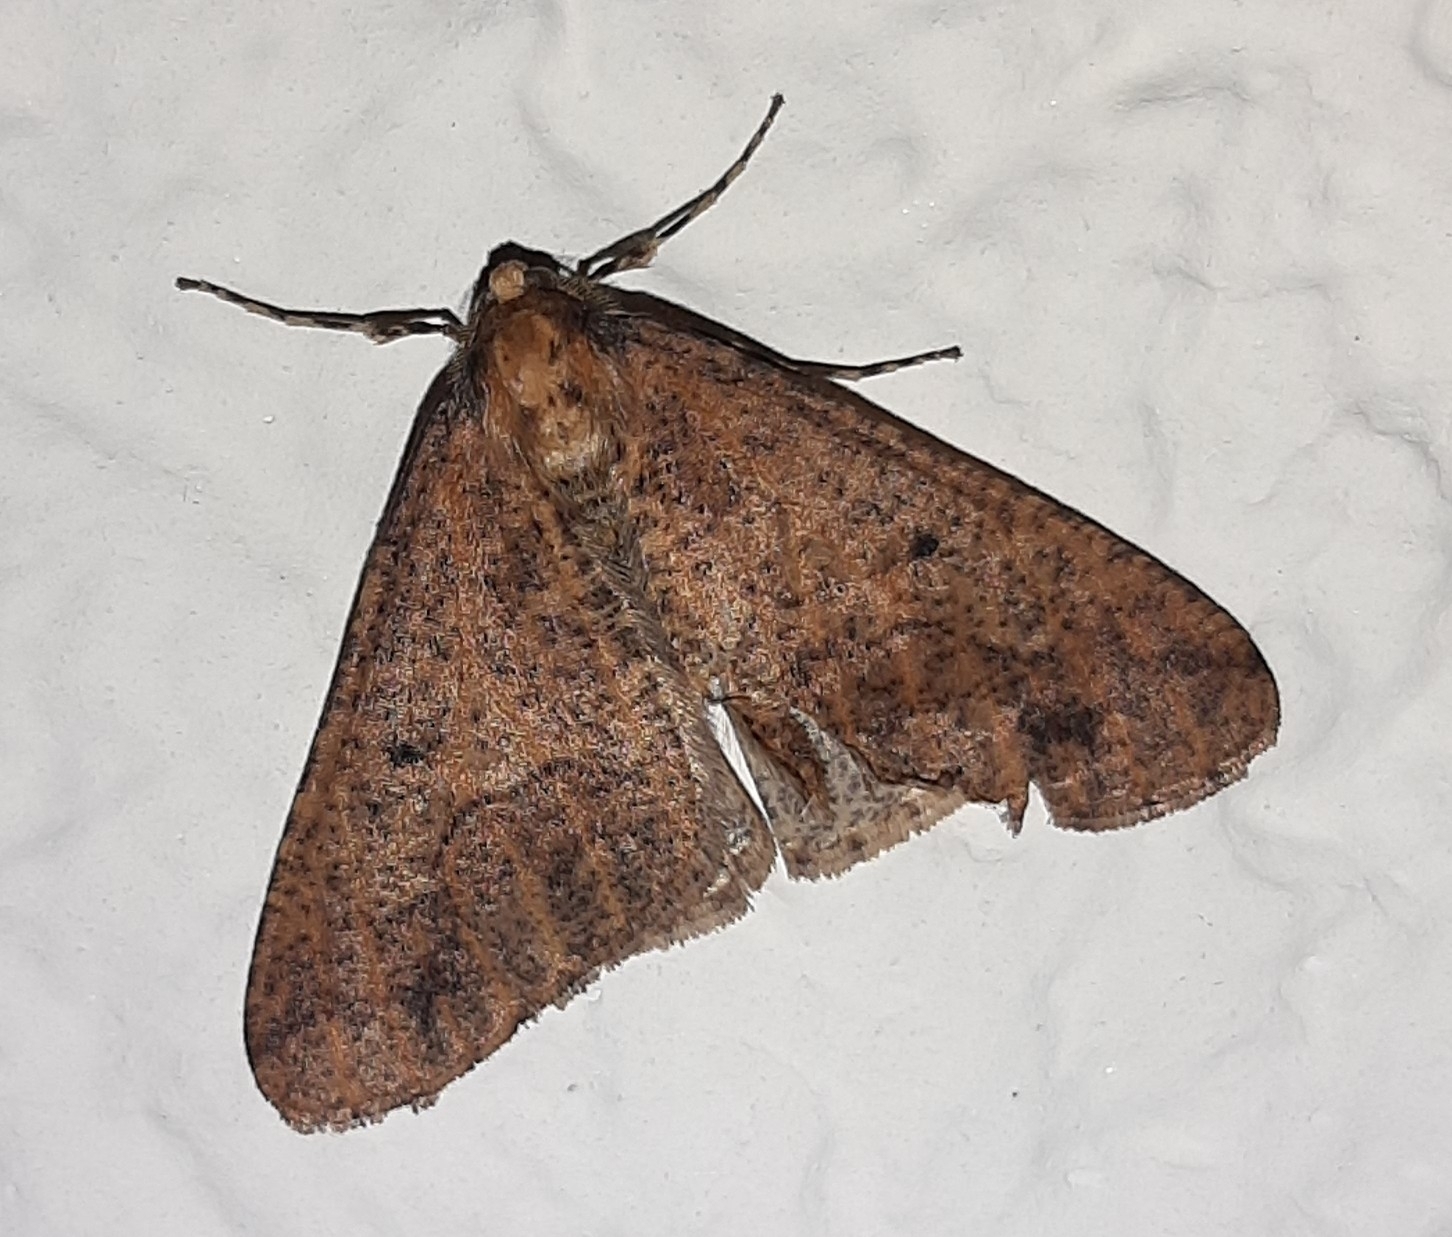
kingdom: Animalia
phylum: Arthropoda
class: Insecta
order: Lepidoptera
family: Geometridae
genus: Erannis
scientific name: Erannis defoliaria
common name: Mottled umber
